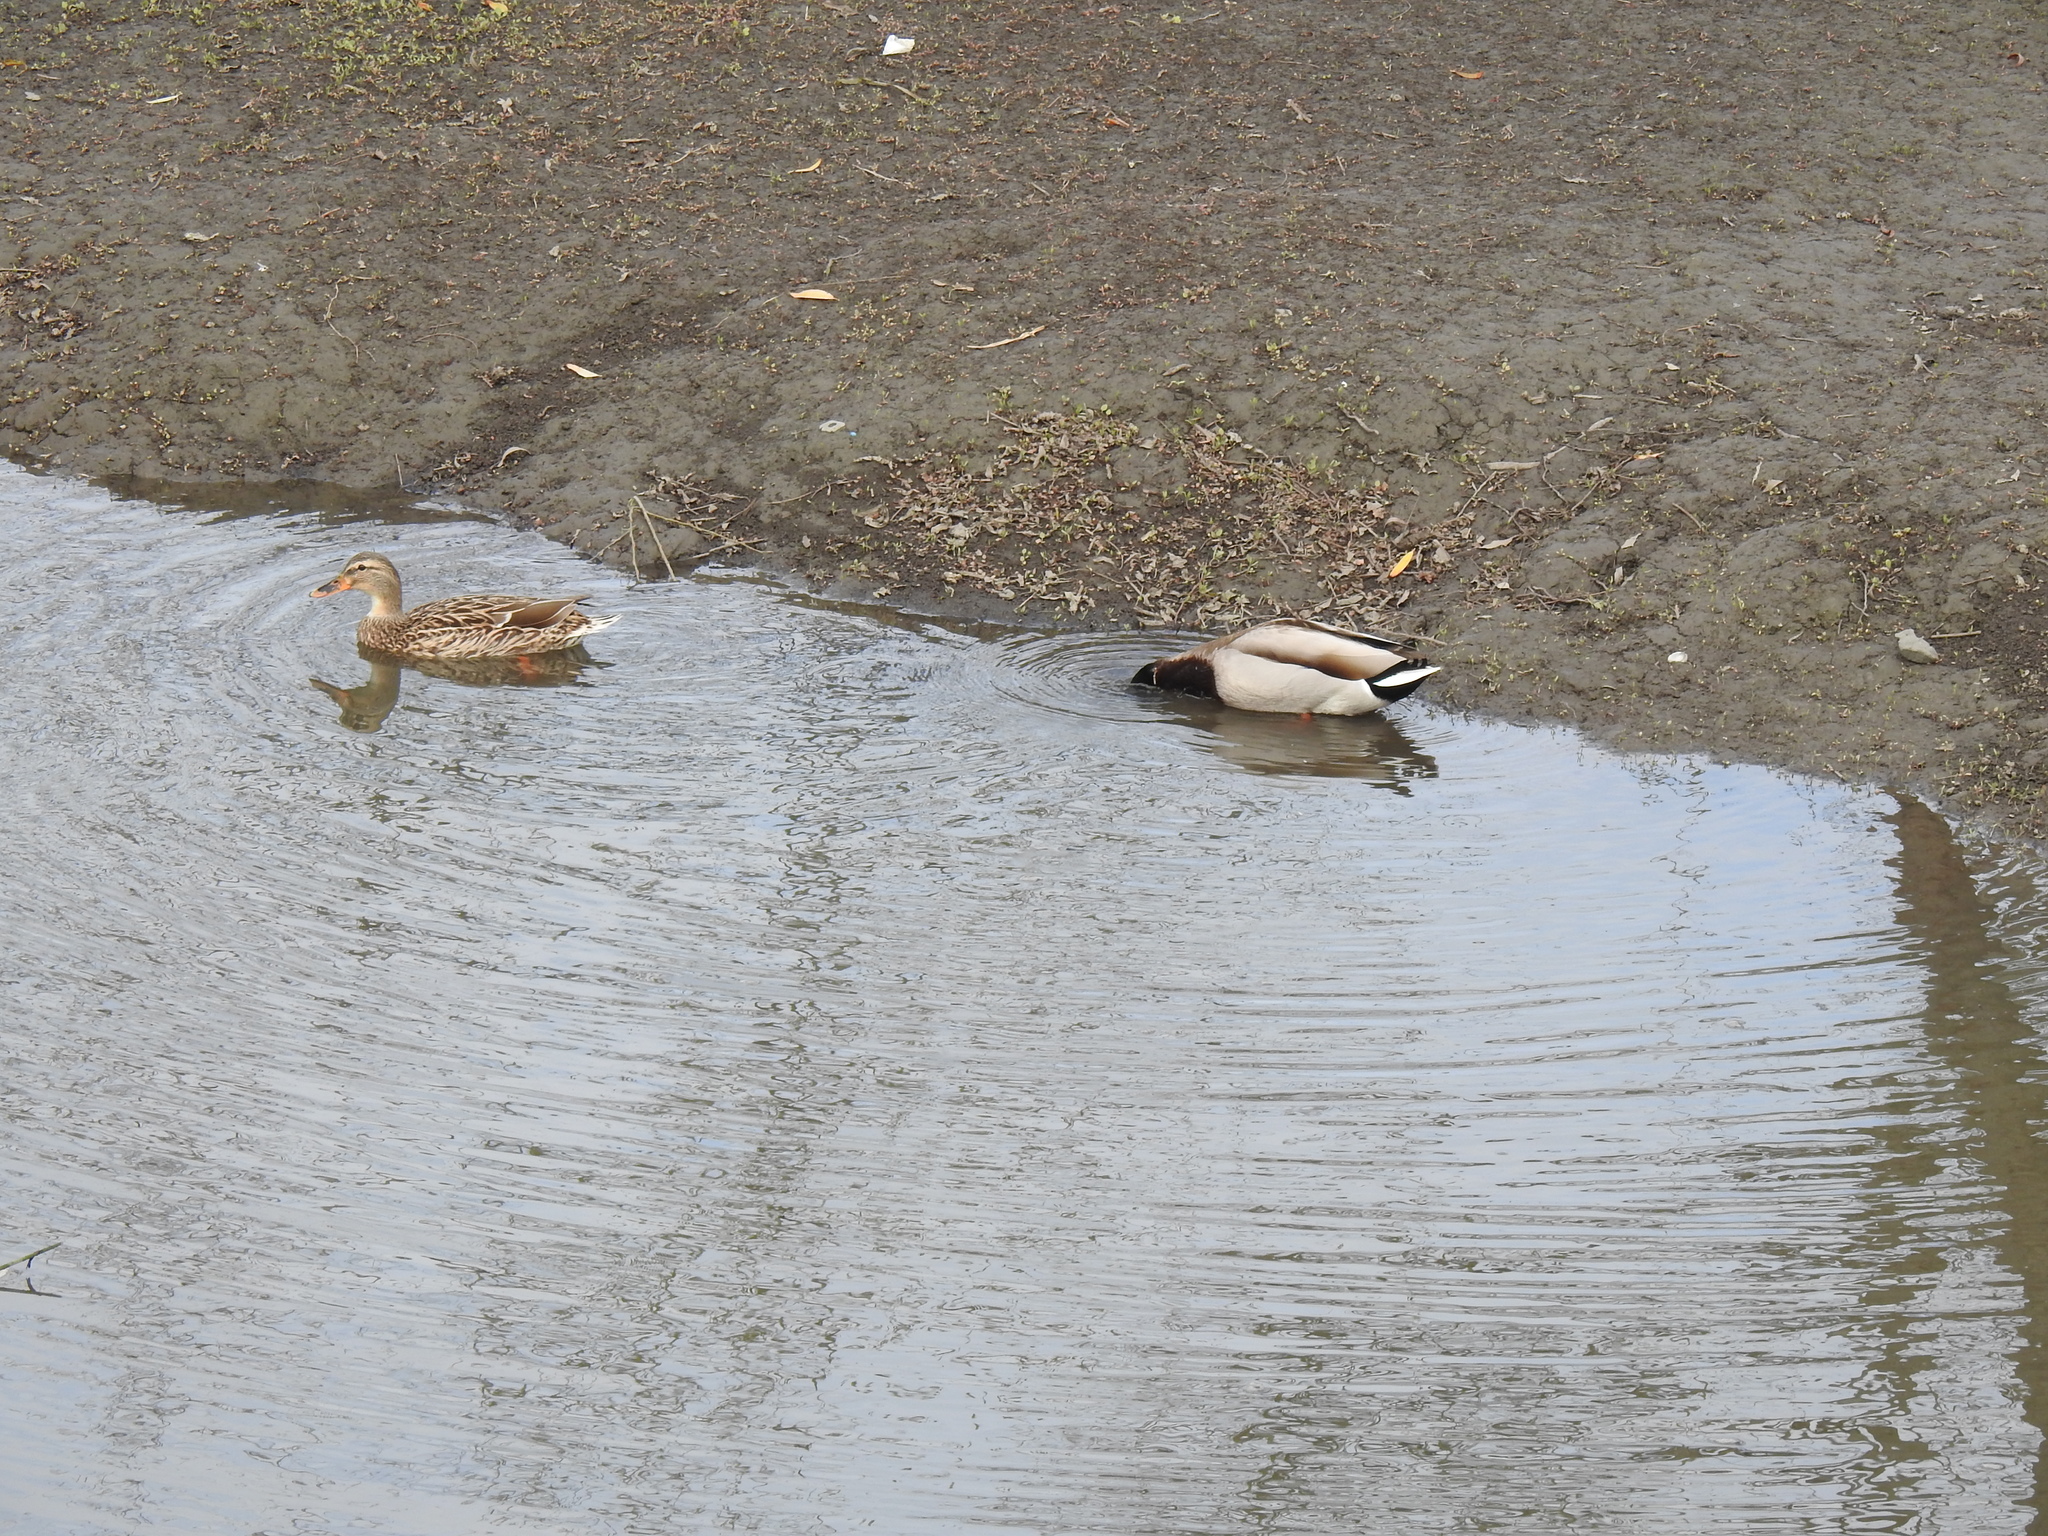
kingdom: Animalia
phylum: Chordata
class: Aves
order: Anseriformes
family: Anatidae
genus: Anas
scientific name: Anas platyrhynchos
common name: Mallard
